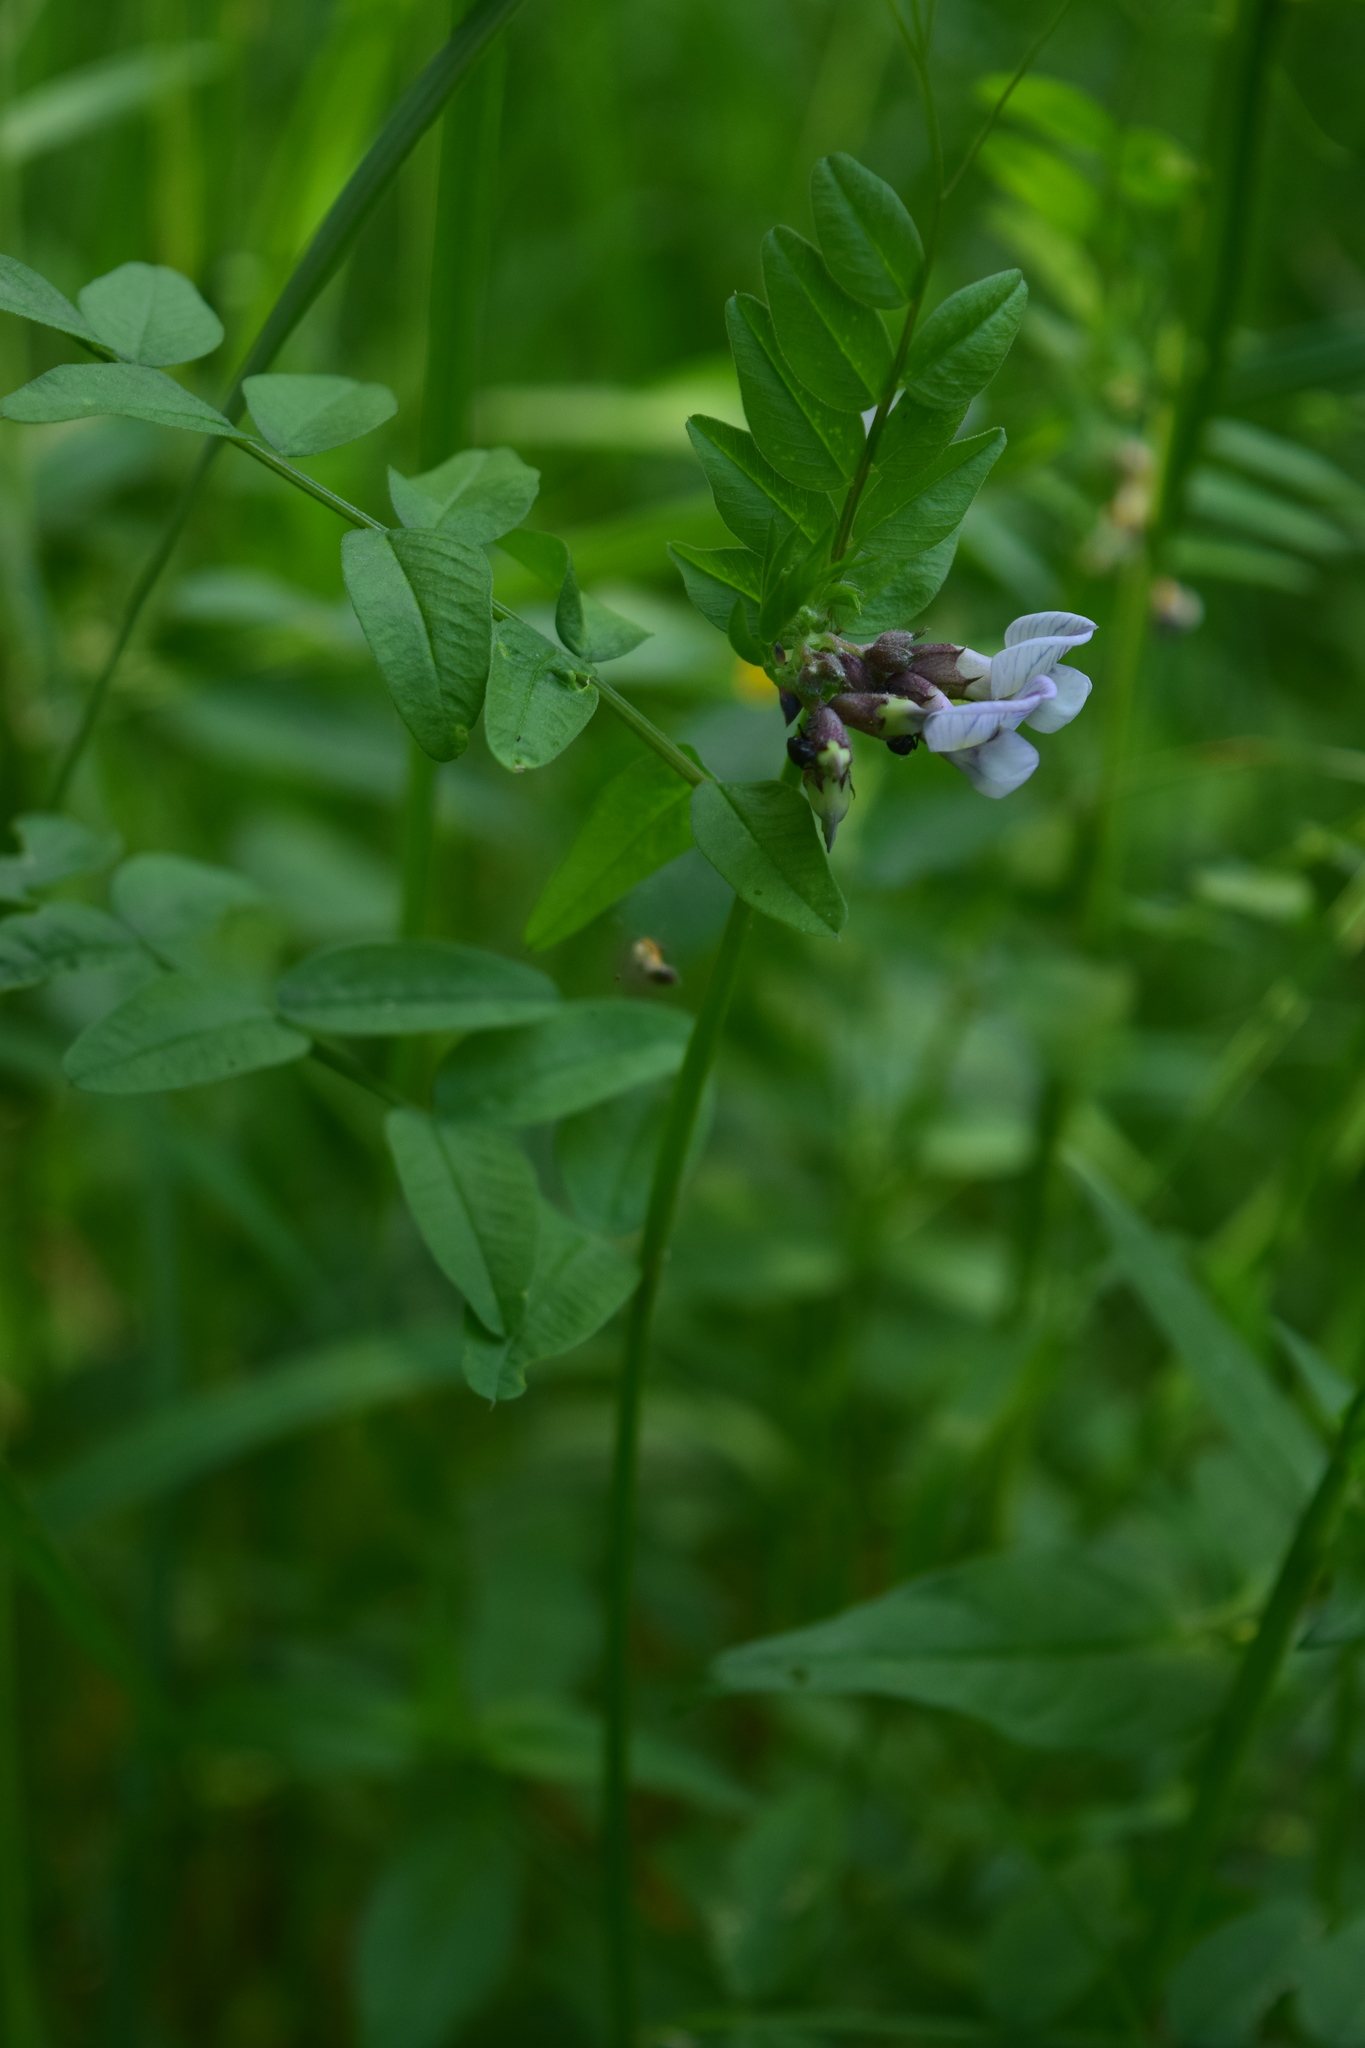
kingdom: Plantae
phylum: Tracheophyta
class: Magnoliopsida
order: Fabales
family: Fabaceae
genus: Vicia
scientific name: Vicia sepium
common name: Bush vetch
